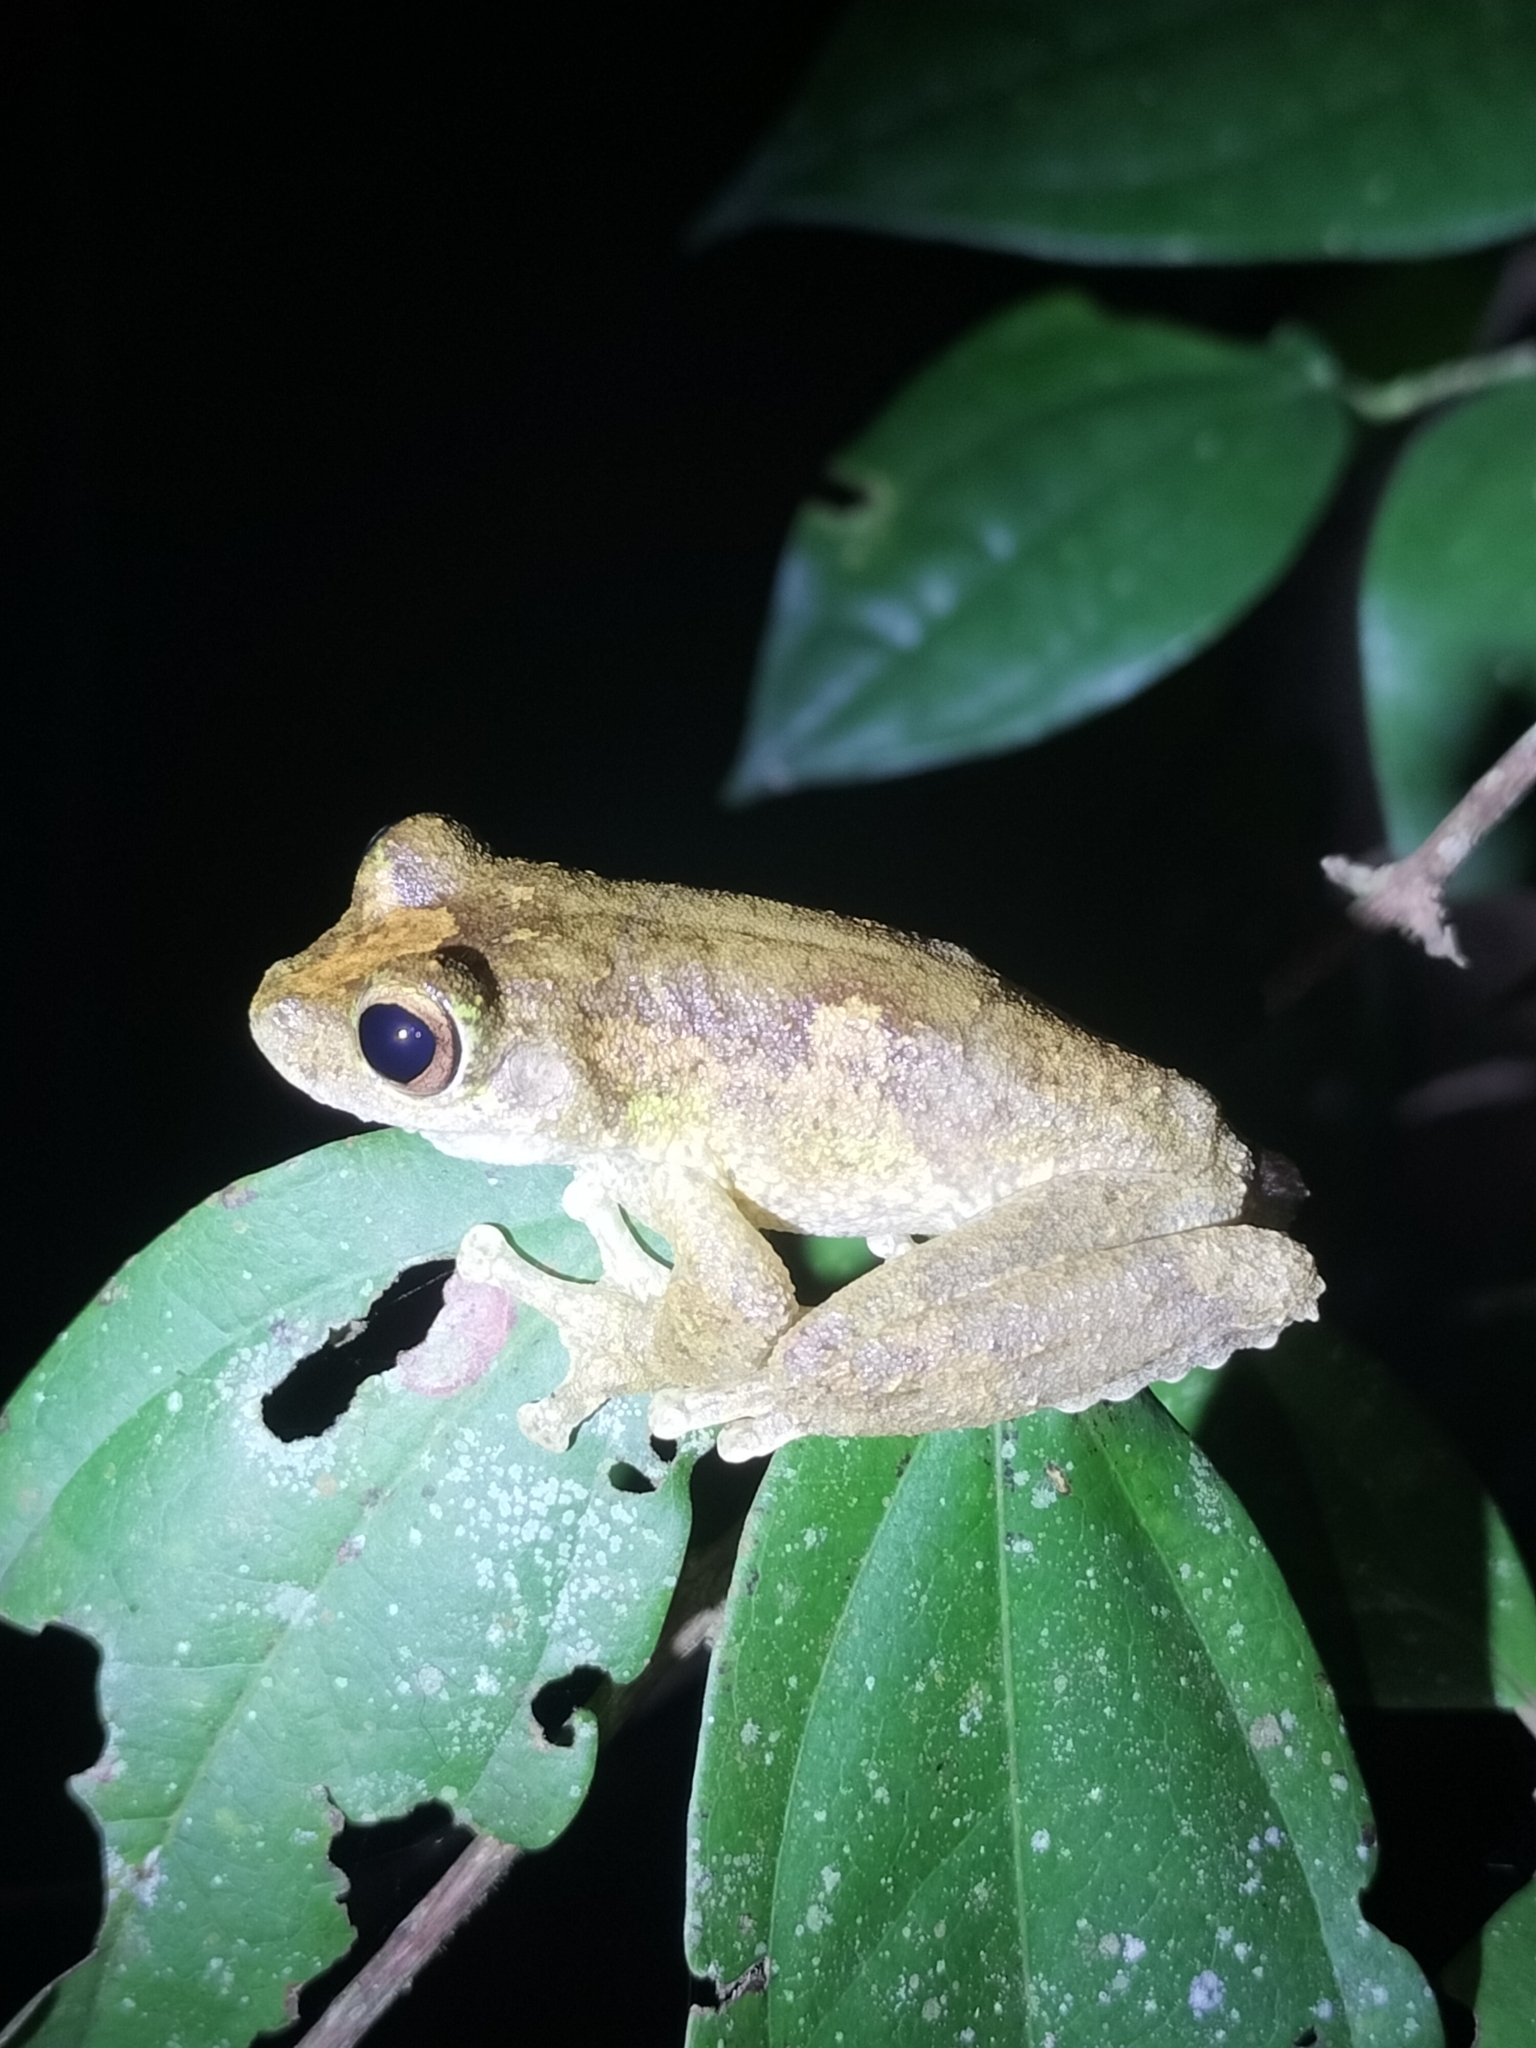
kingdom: Animalia
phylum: Chordata
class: Amphibia
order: Anura
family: Pelodryadidae
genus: Ranoidea
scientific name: Ranoidea serrata
